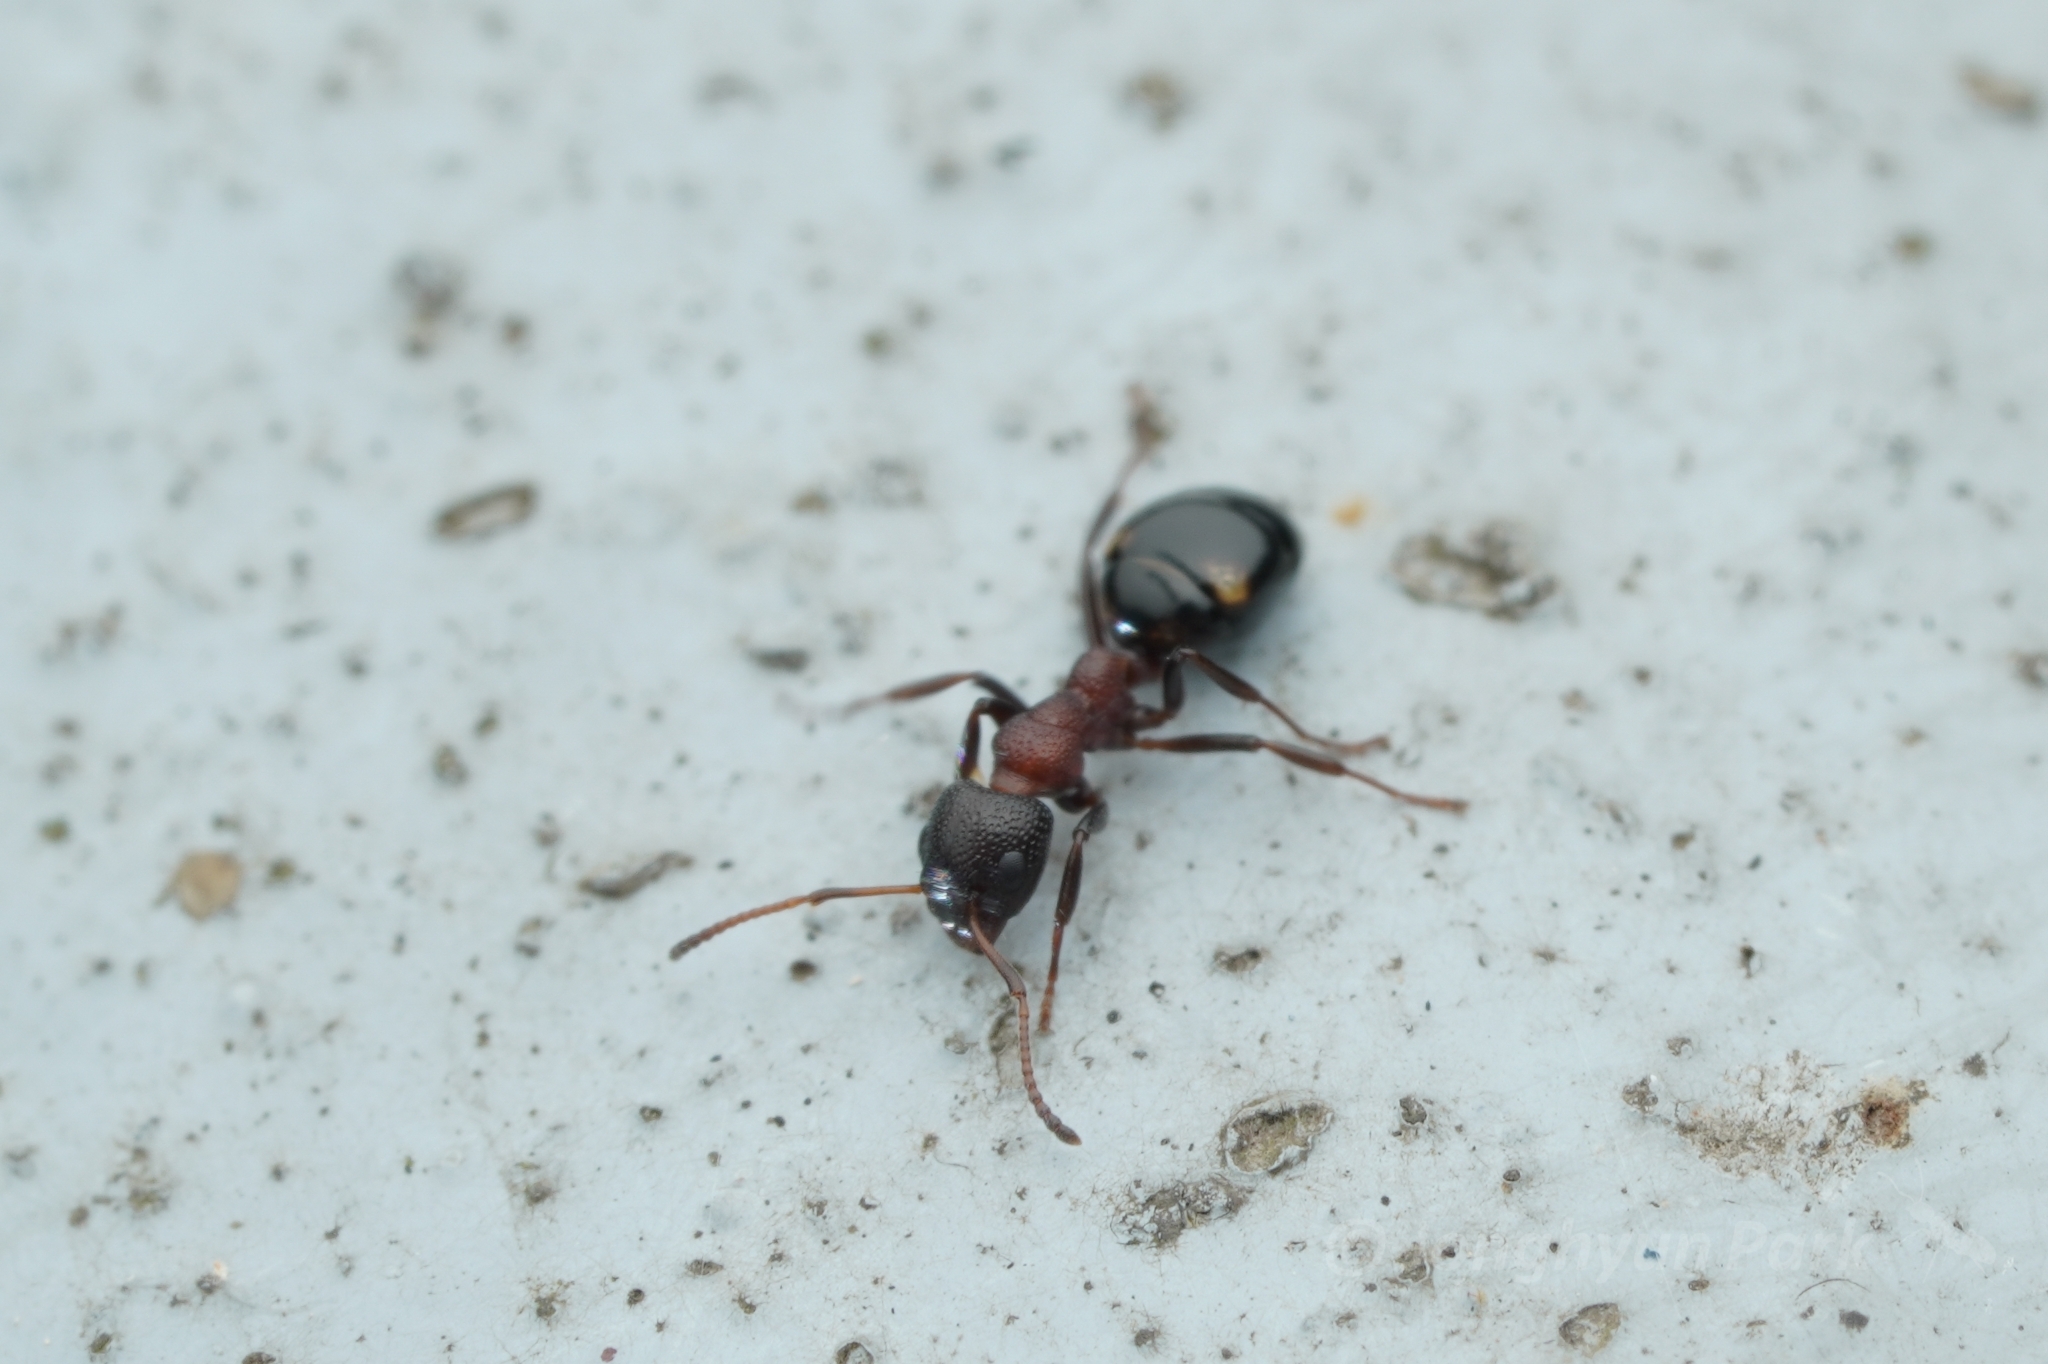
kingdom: Animalia
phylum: Arthropoda
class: Insecta
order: Hymenoptera
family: Formicidae
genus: Dolichoderus
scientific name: Dolichoderus sibiricus
